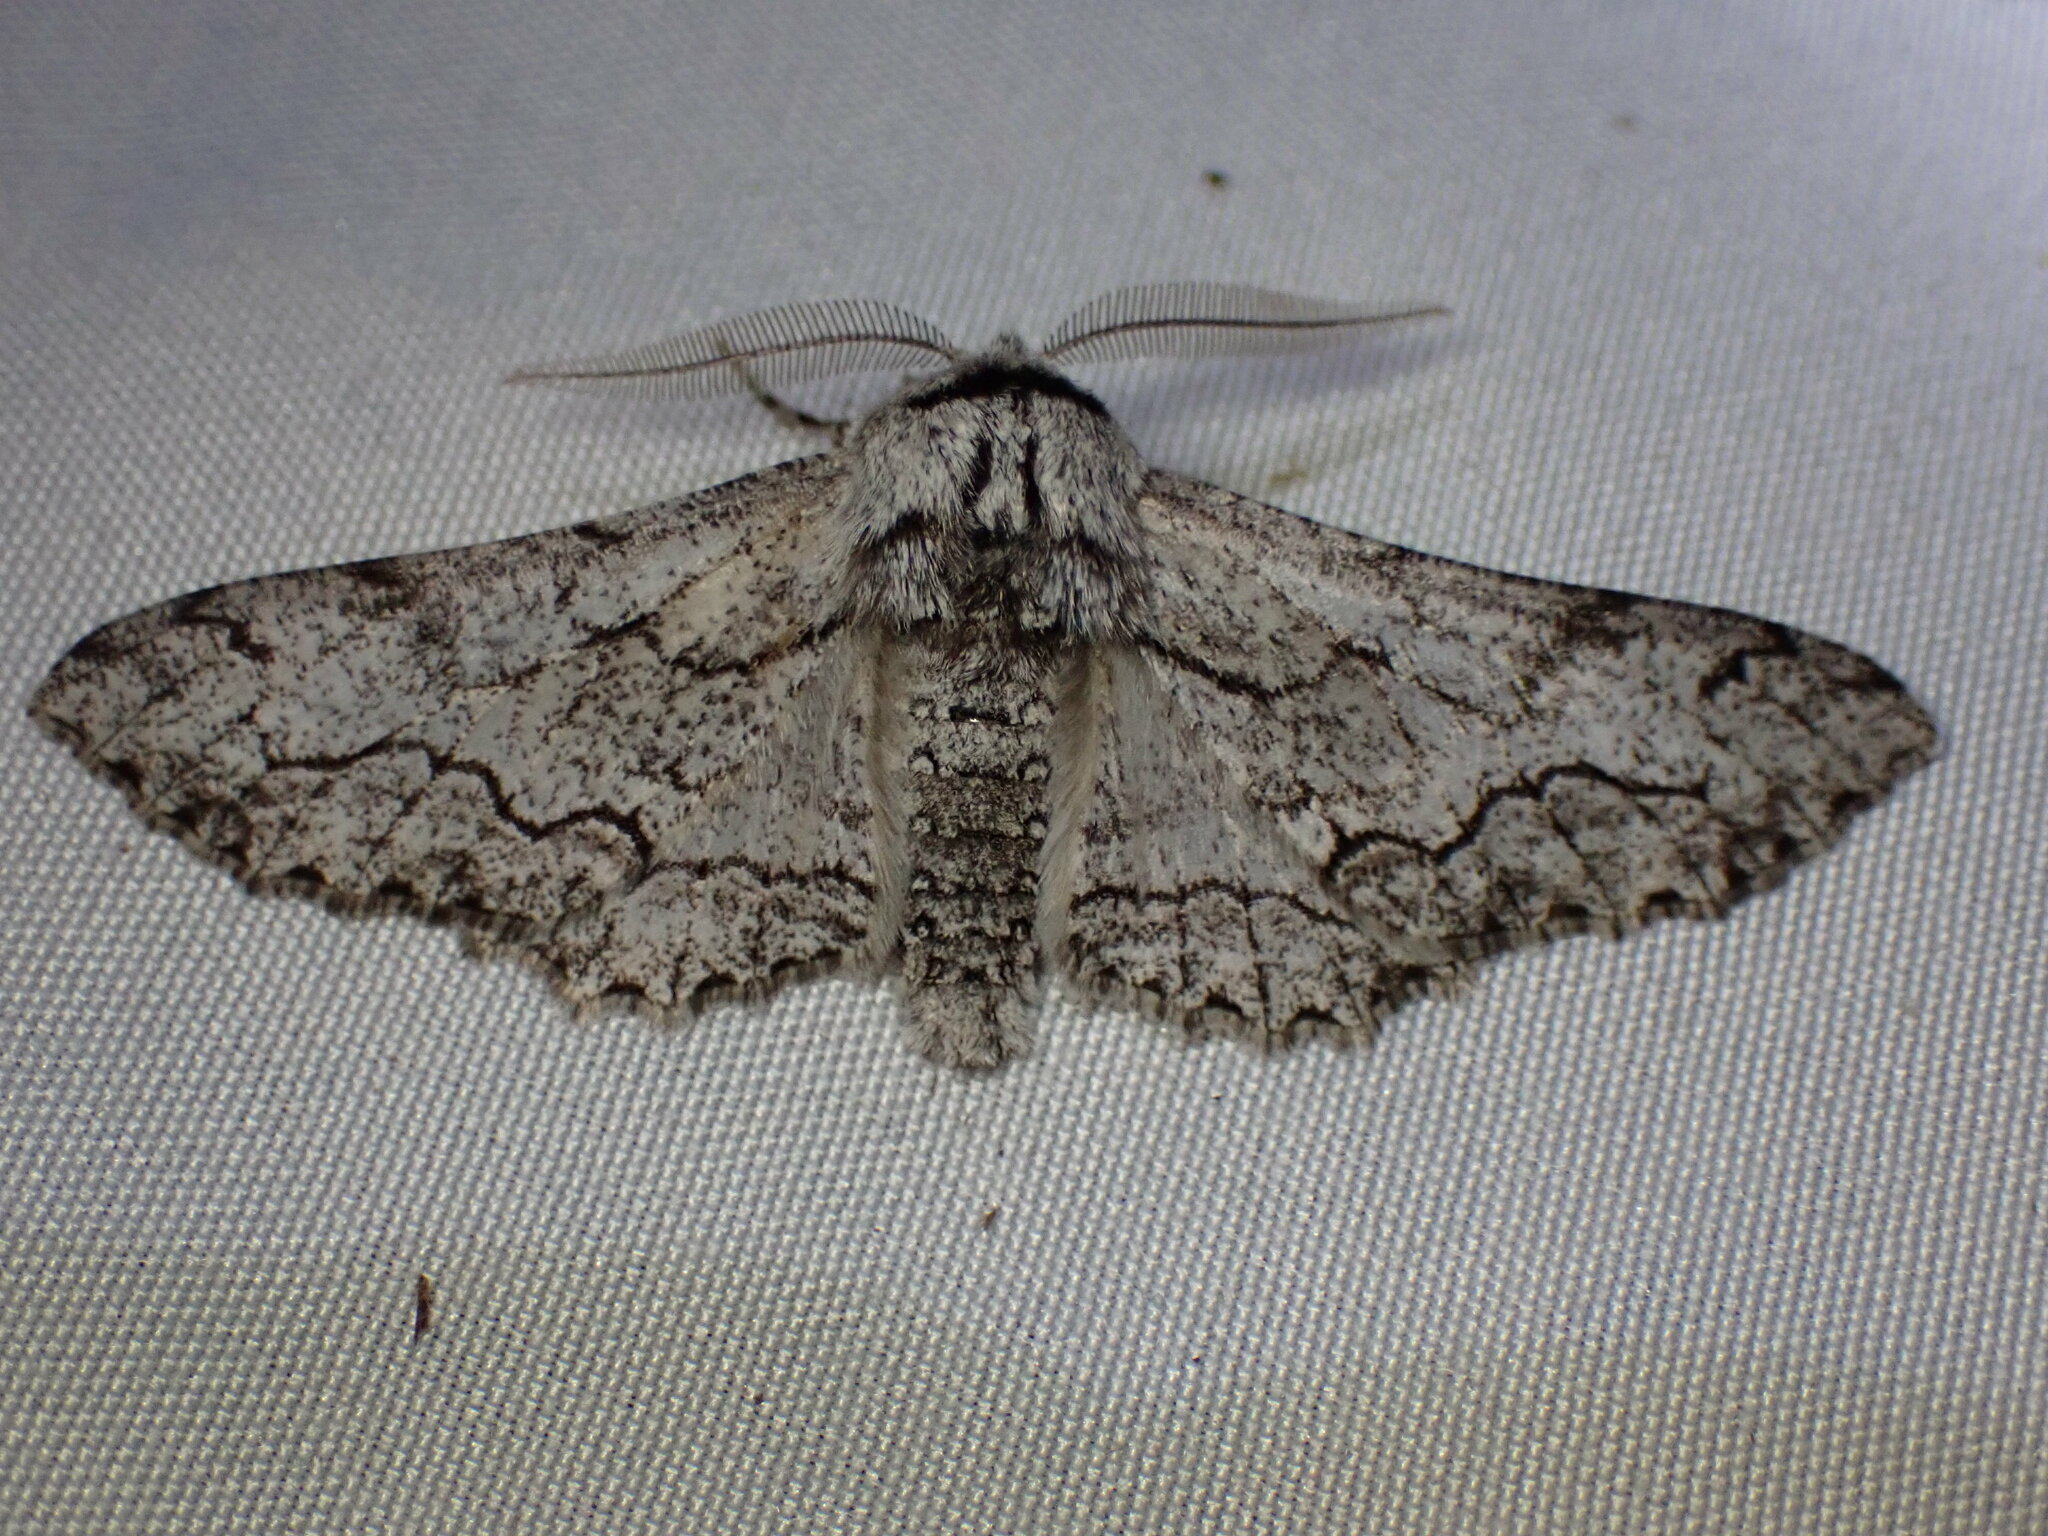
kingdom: Animalia
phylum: Arthropoda
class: Insecta
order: Lepidoptera
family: Geometridae
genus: Biston
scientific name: Biston sinuata
